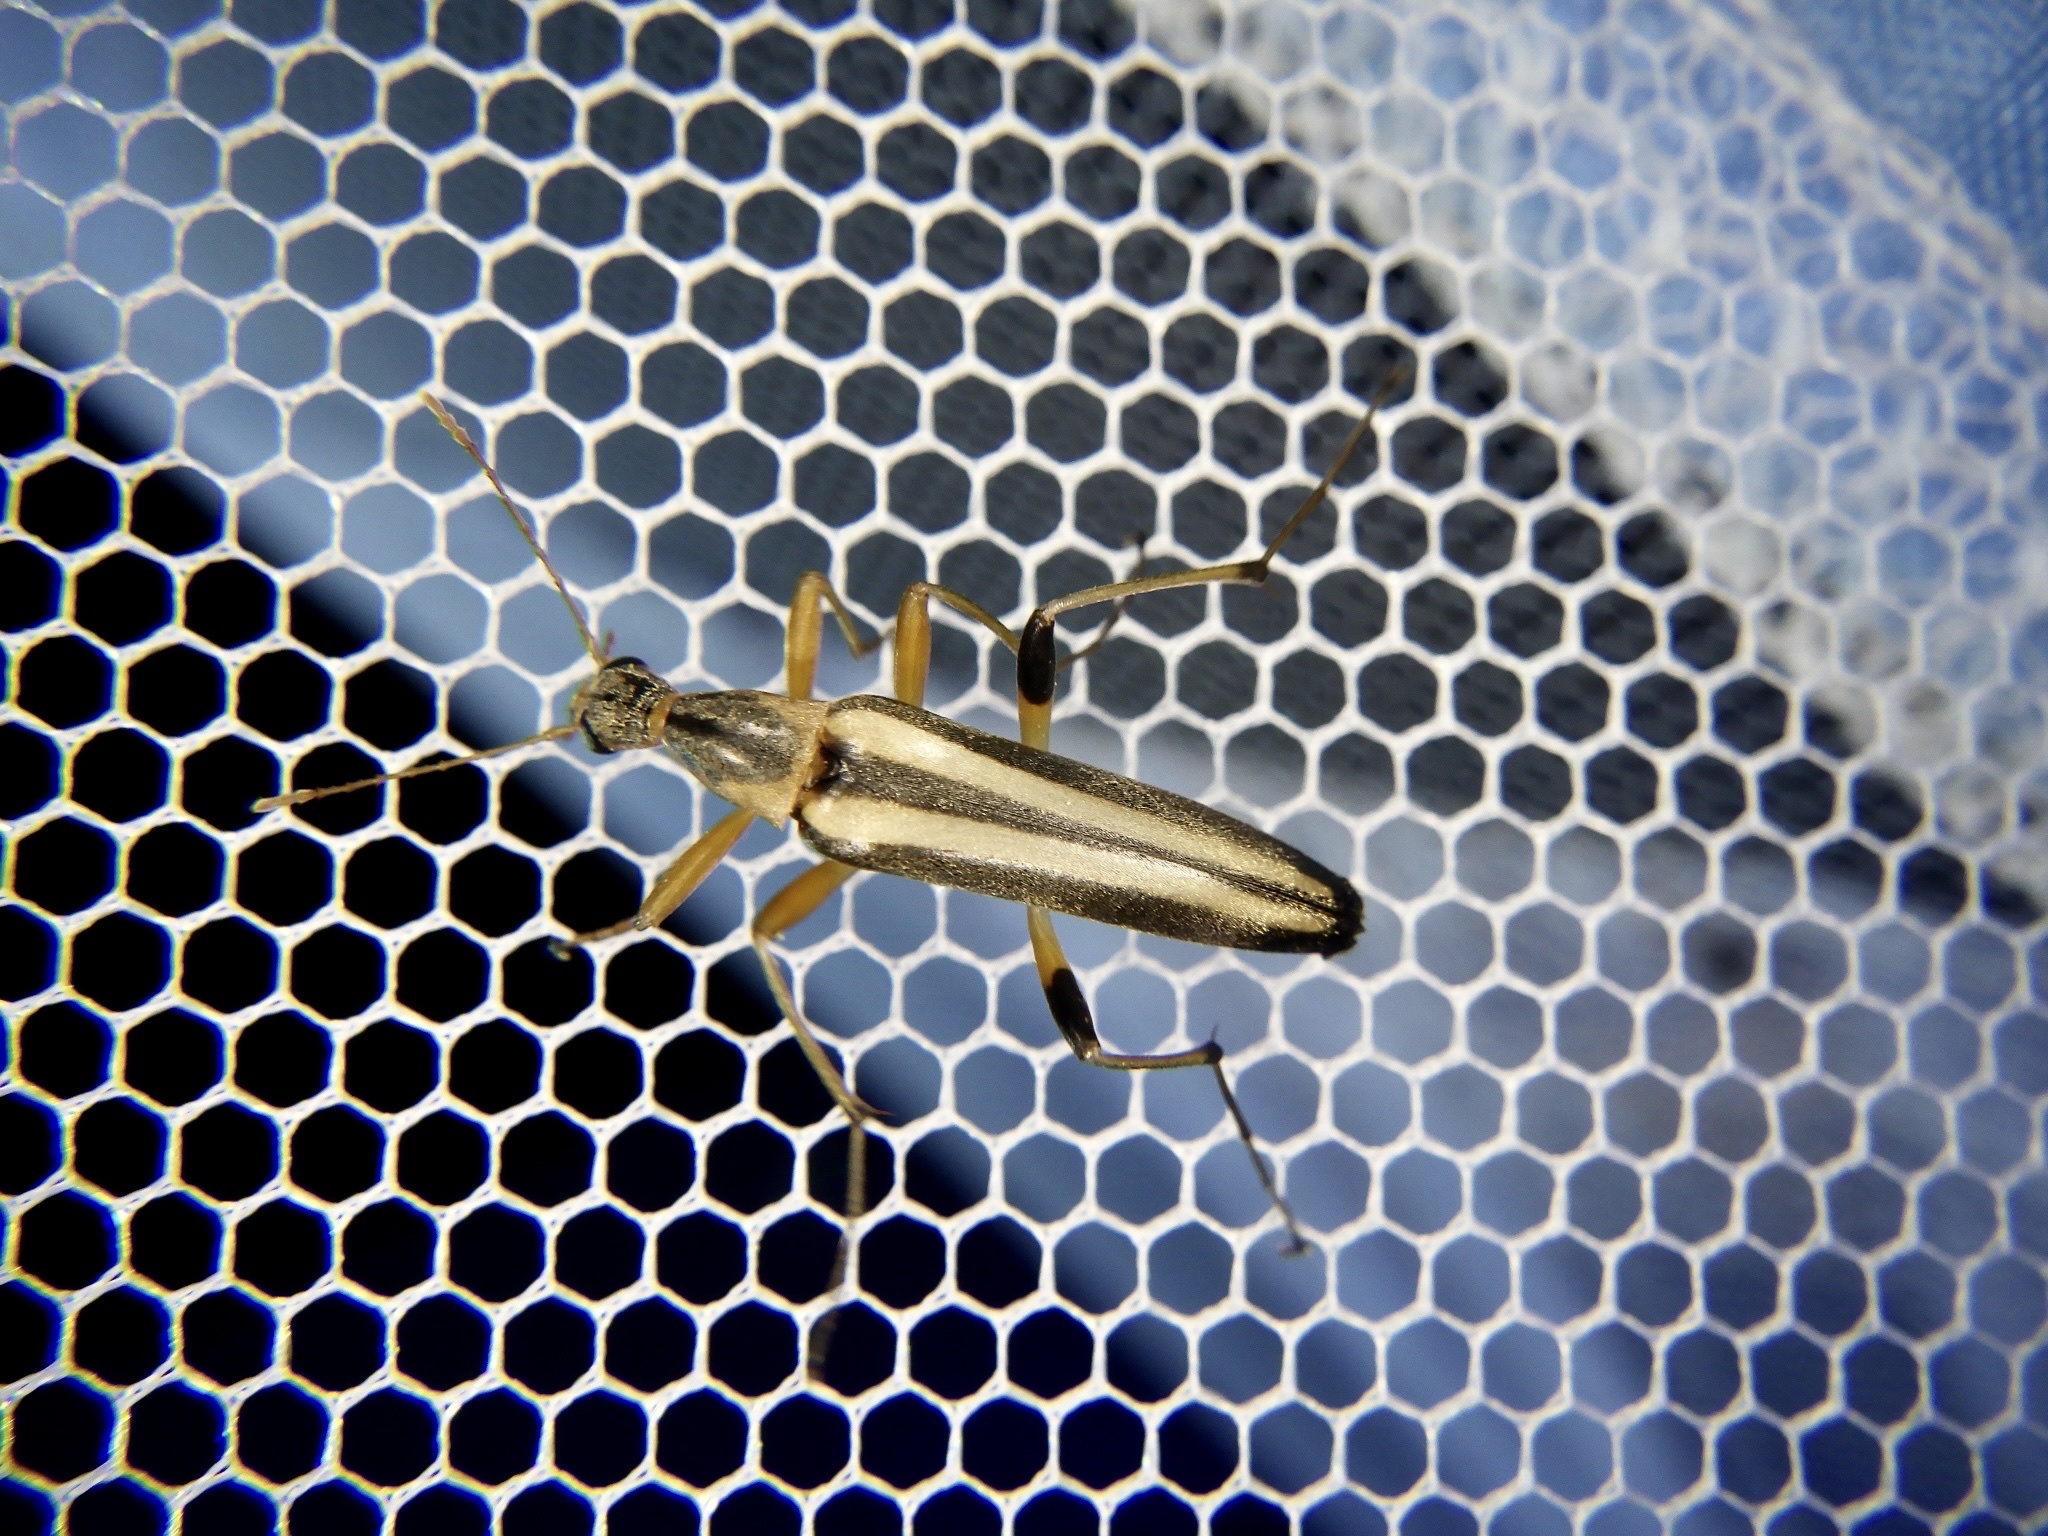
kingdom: Animalia
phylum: Arthropoda
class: Insecta
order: Coleoptera
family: Stenotrachelidae
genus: Cephaloon
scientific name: Cephaloon pallens
